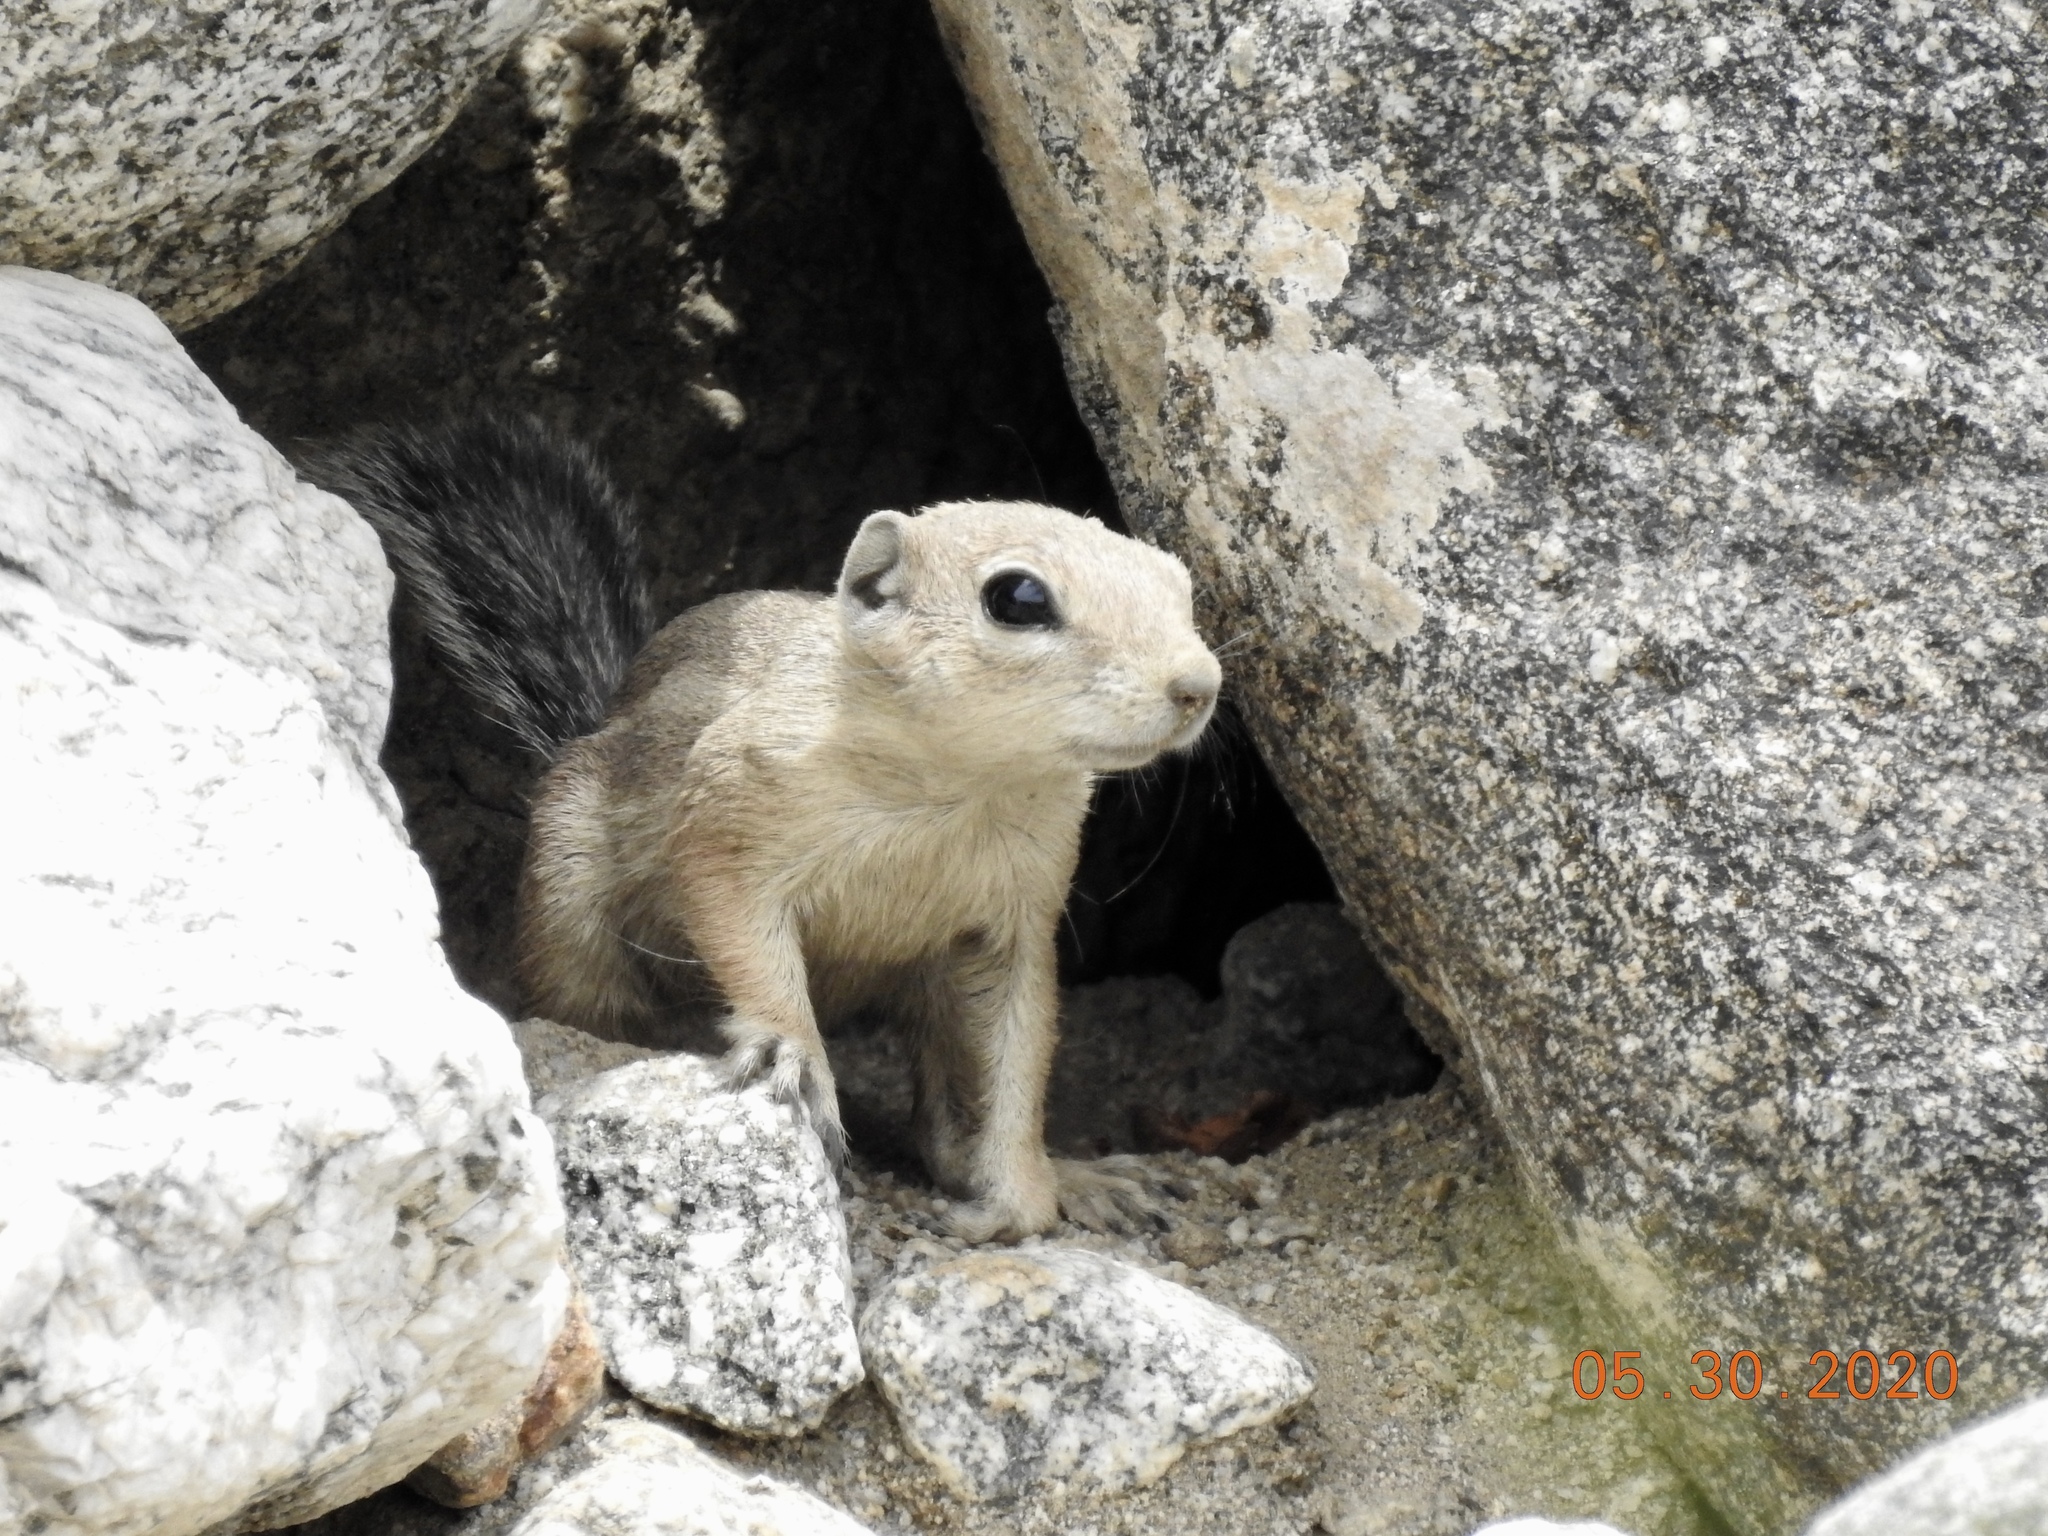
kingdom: Animalia
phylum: Chordata
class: Mammalia
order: Rodentia
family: Sciuridae
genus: Ammospermophilus
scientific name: Ammospermophilus leucurus
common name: White-tailed antelope squirrel
